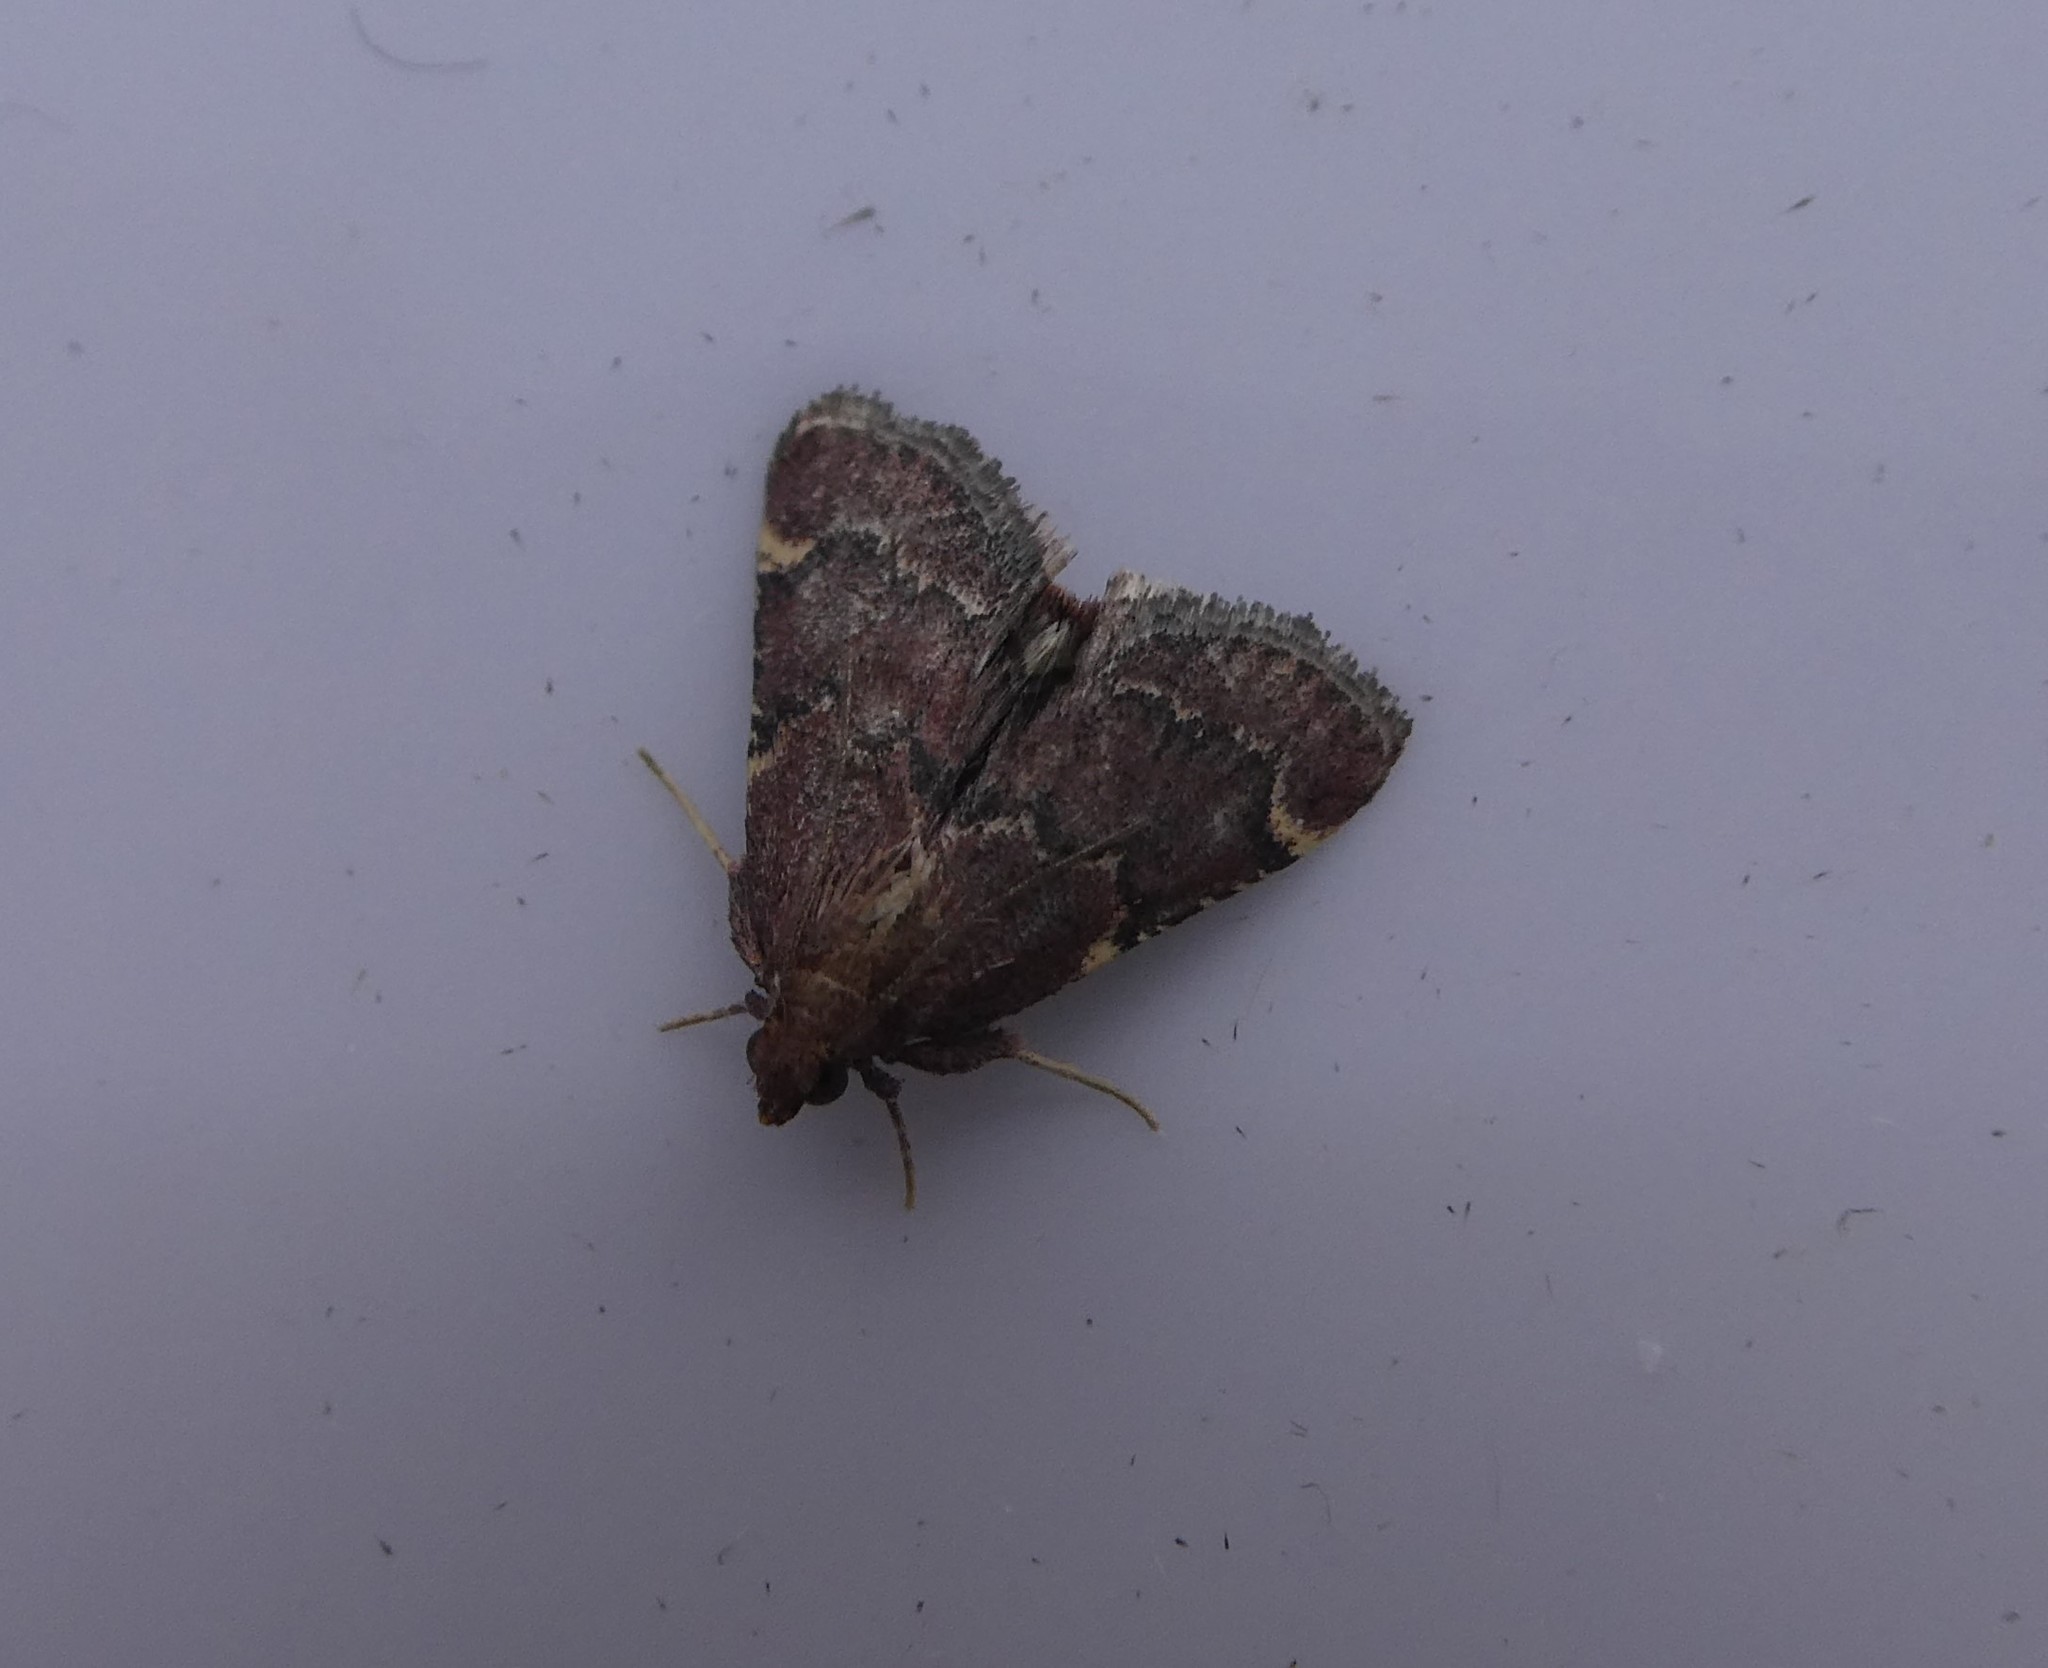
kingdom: Animalia
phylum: Arthropoda
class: Insecta
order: Lepidoptera
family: Pyralidae
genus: Hypsopygia
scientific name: Hypsopygia intermedialis
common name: Red-shawled moth
